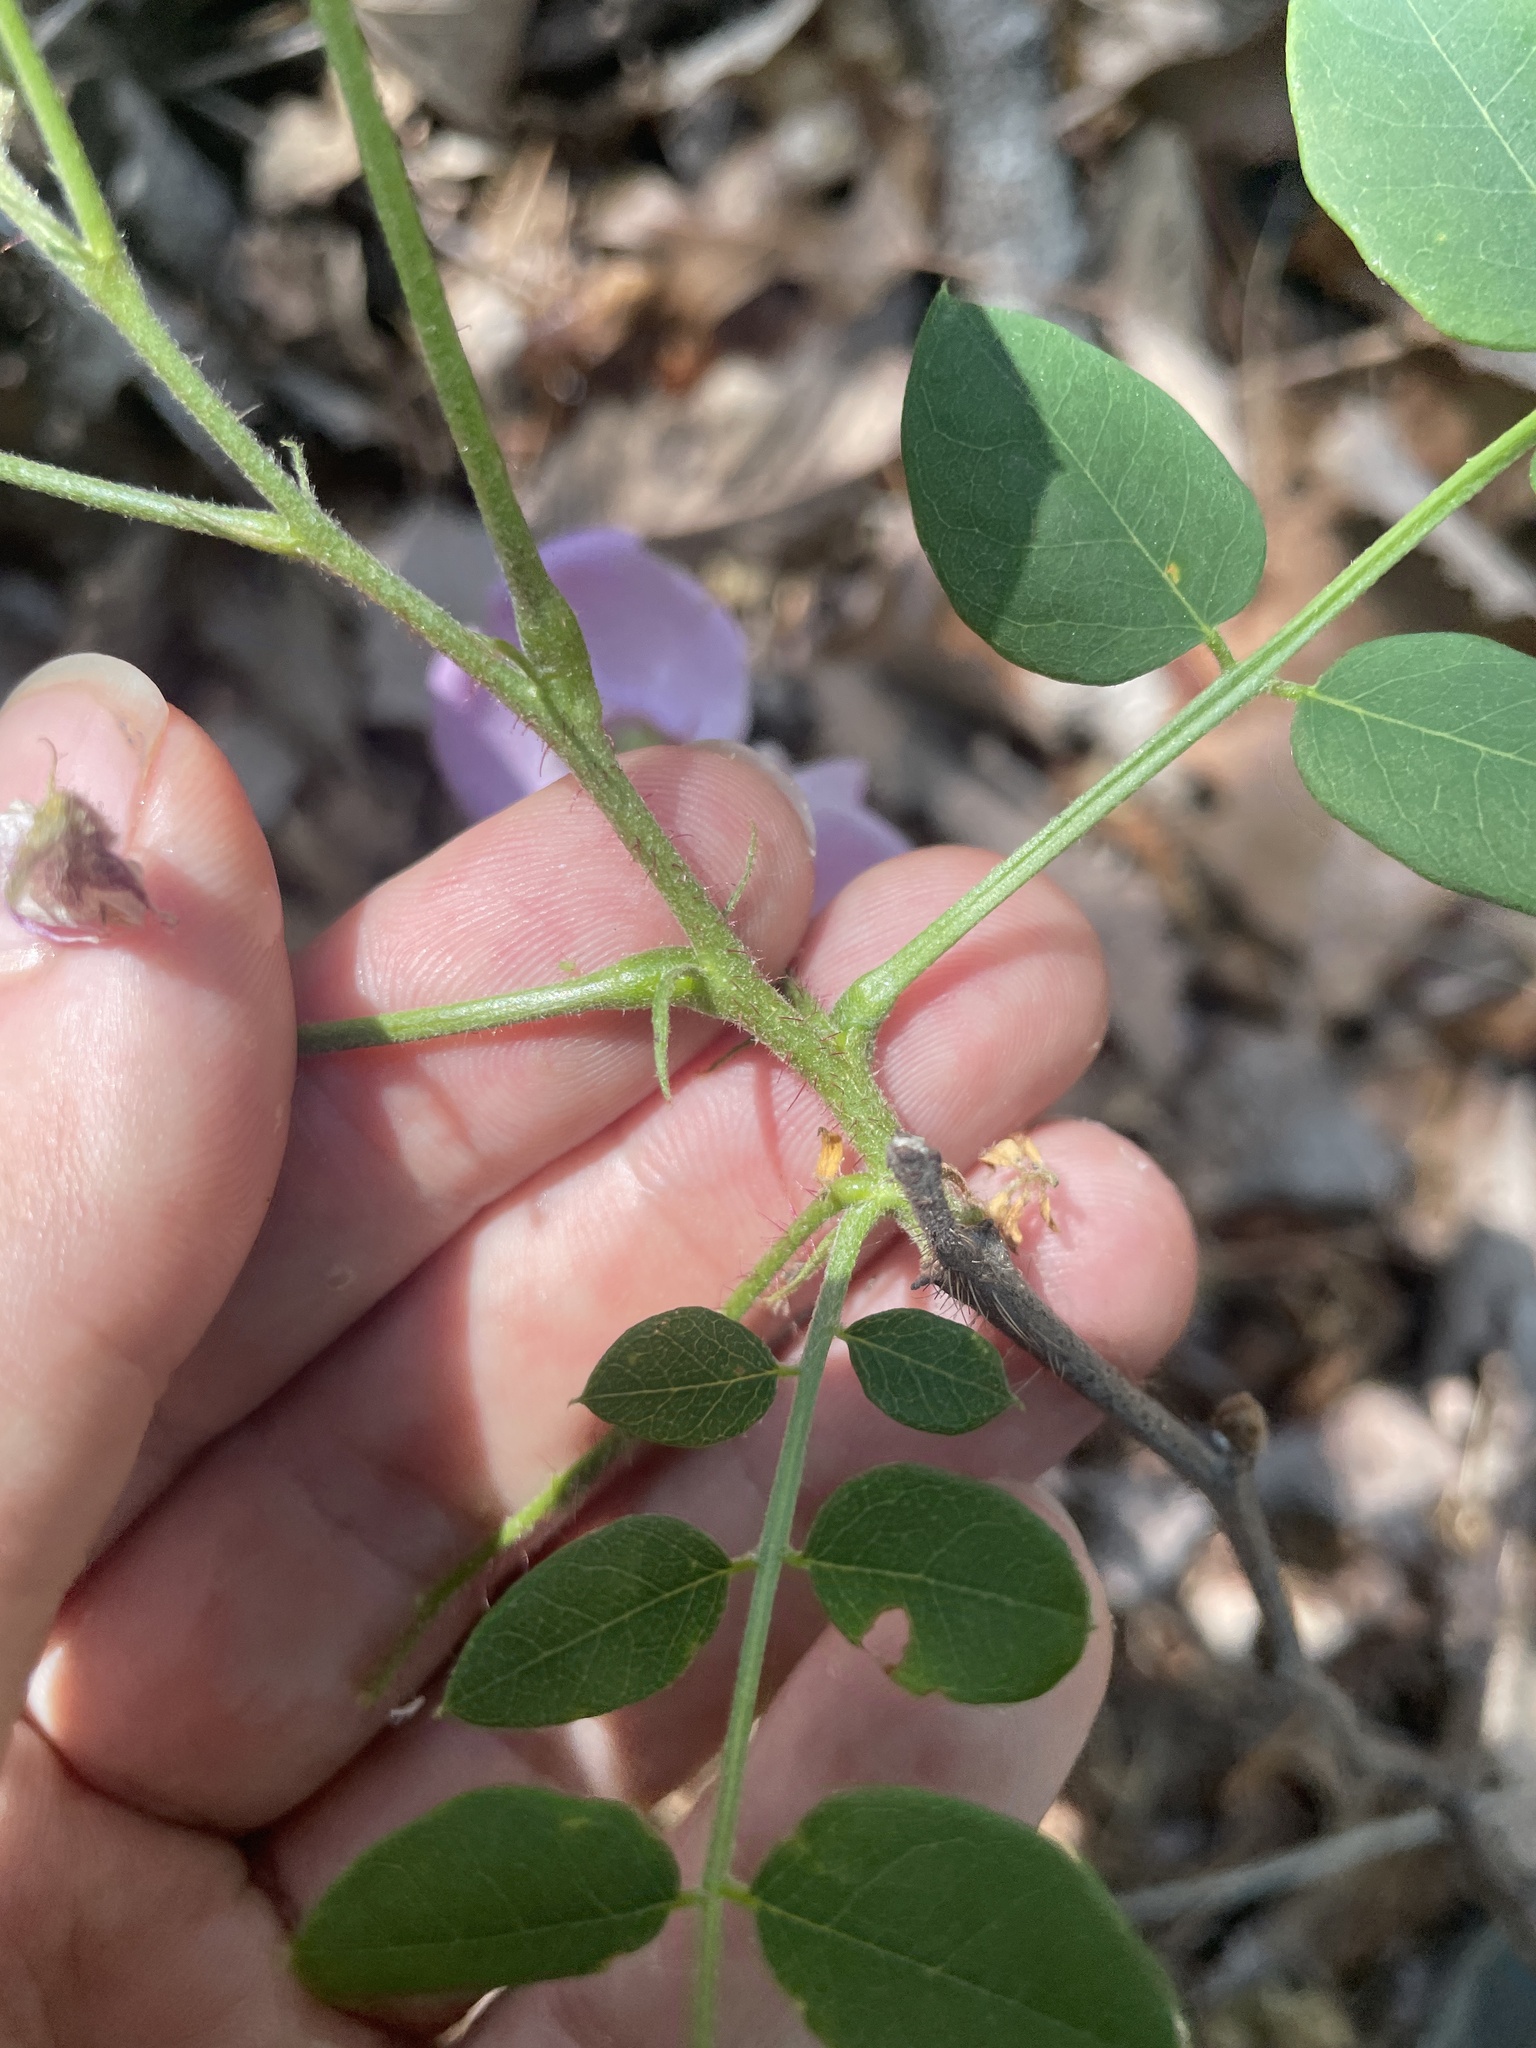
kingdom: Plantae
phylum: Tracheophyta
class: Magnoliopsida
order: Fabales
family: Fabaceae
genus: Robinia
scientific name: Robinia hispida
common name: Bristly locust
